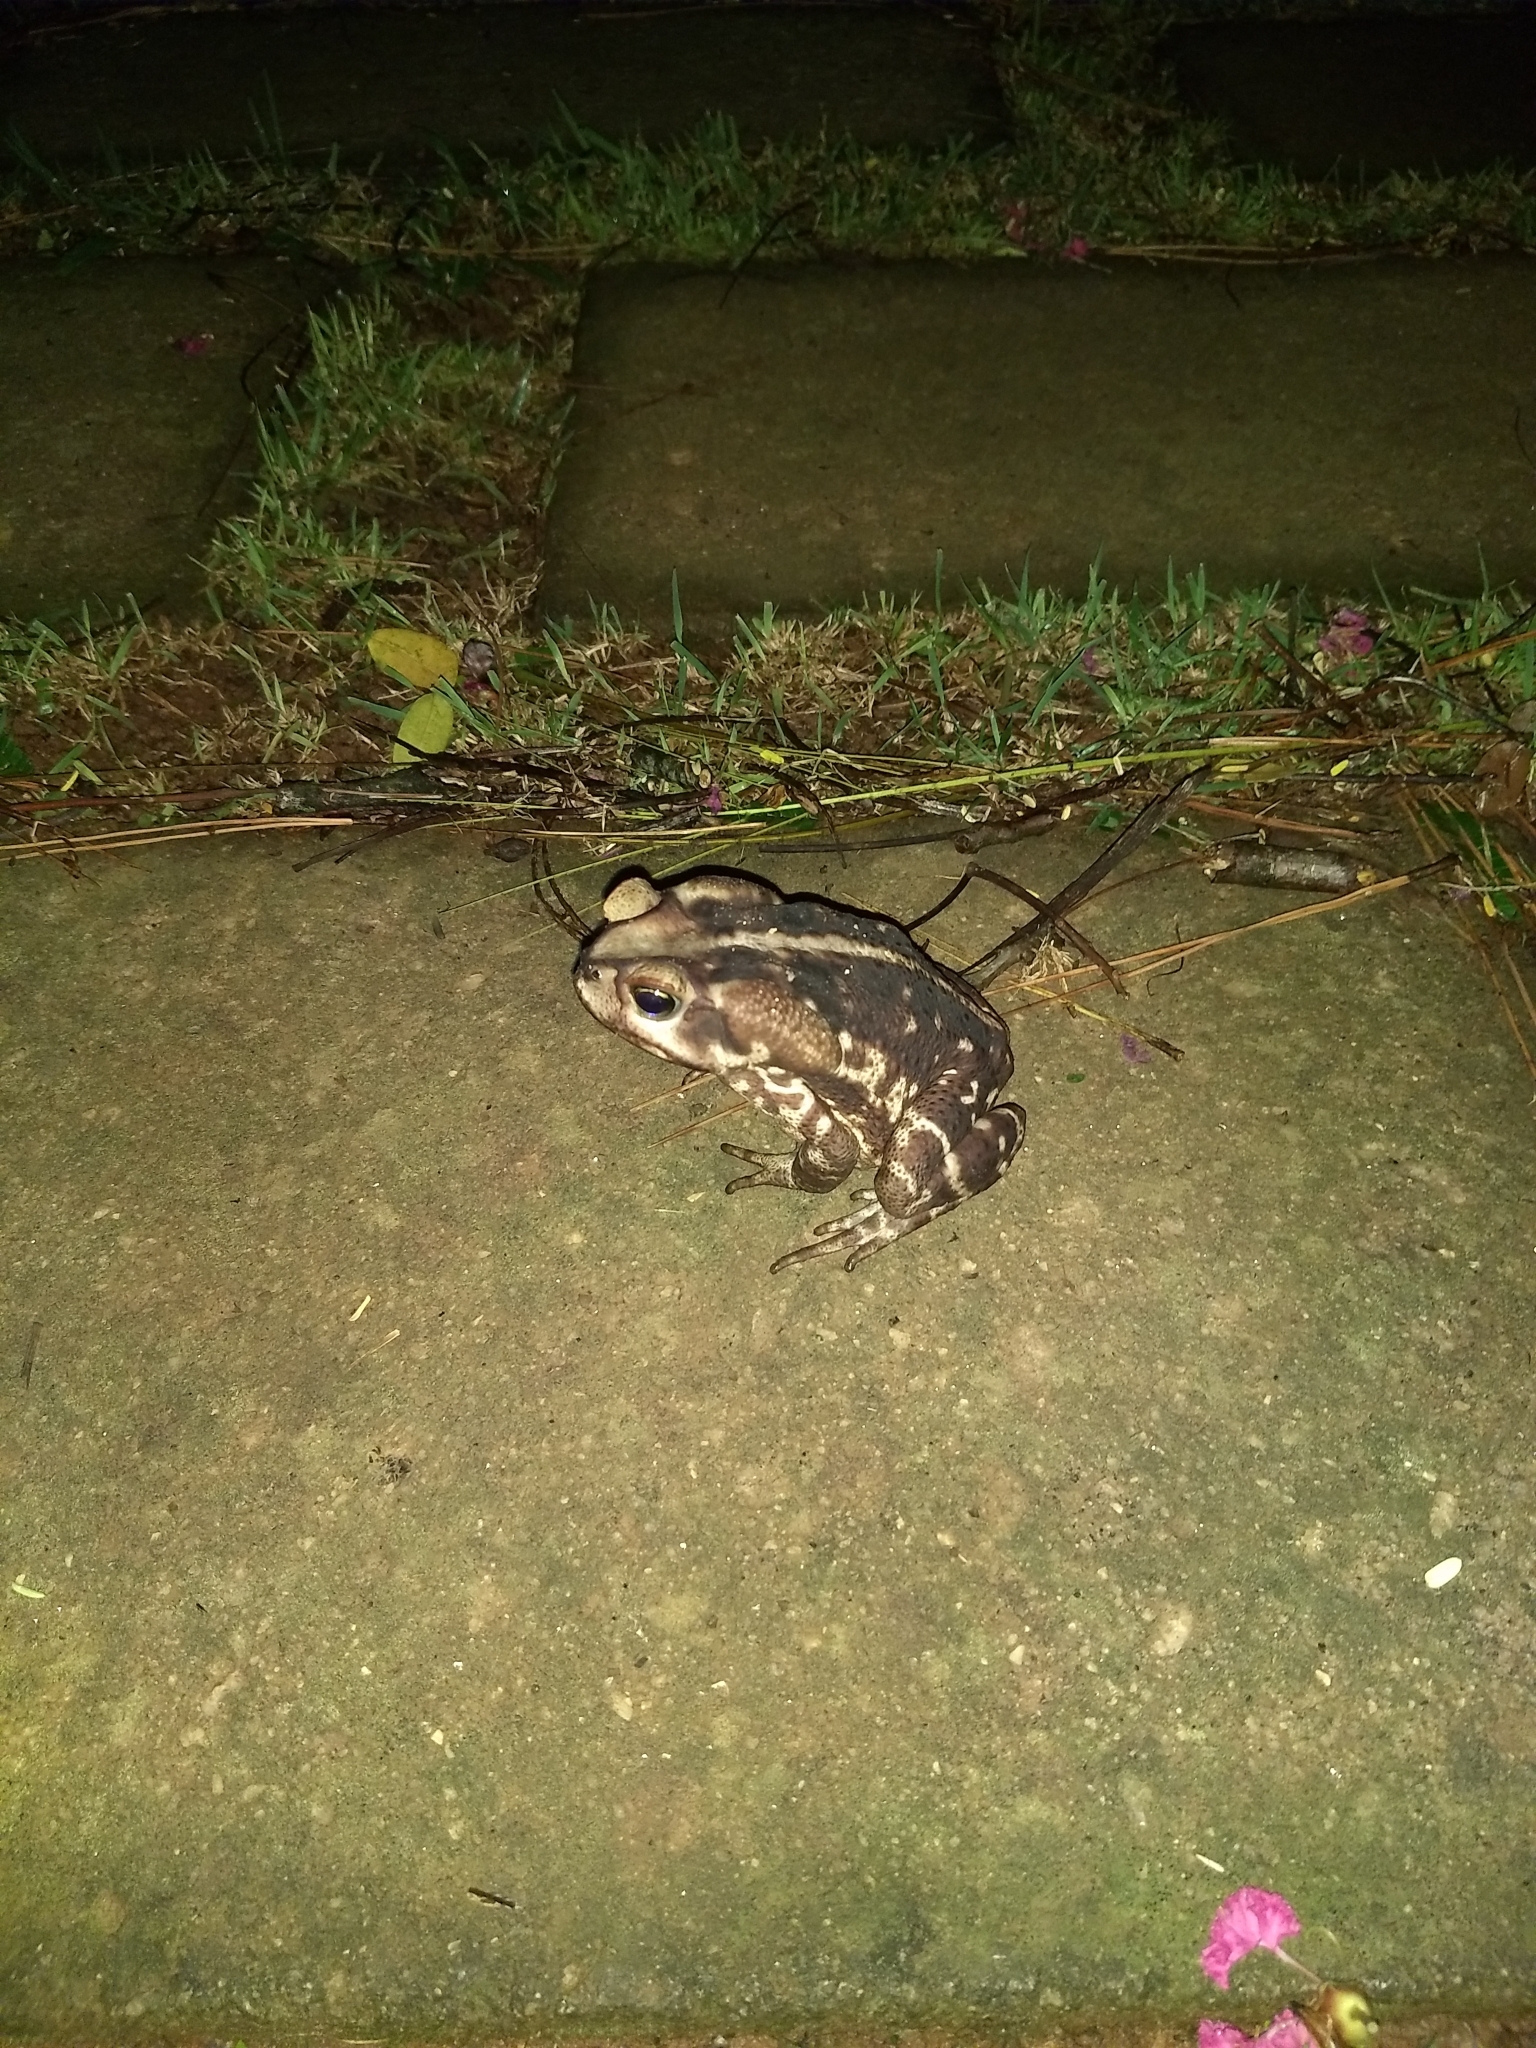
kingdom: Animalia
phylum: Chordata
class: Amphibia
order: Anura
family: Bufonidae
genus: Rhinella
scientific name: Rhinella icterica
